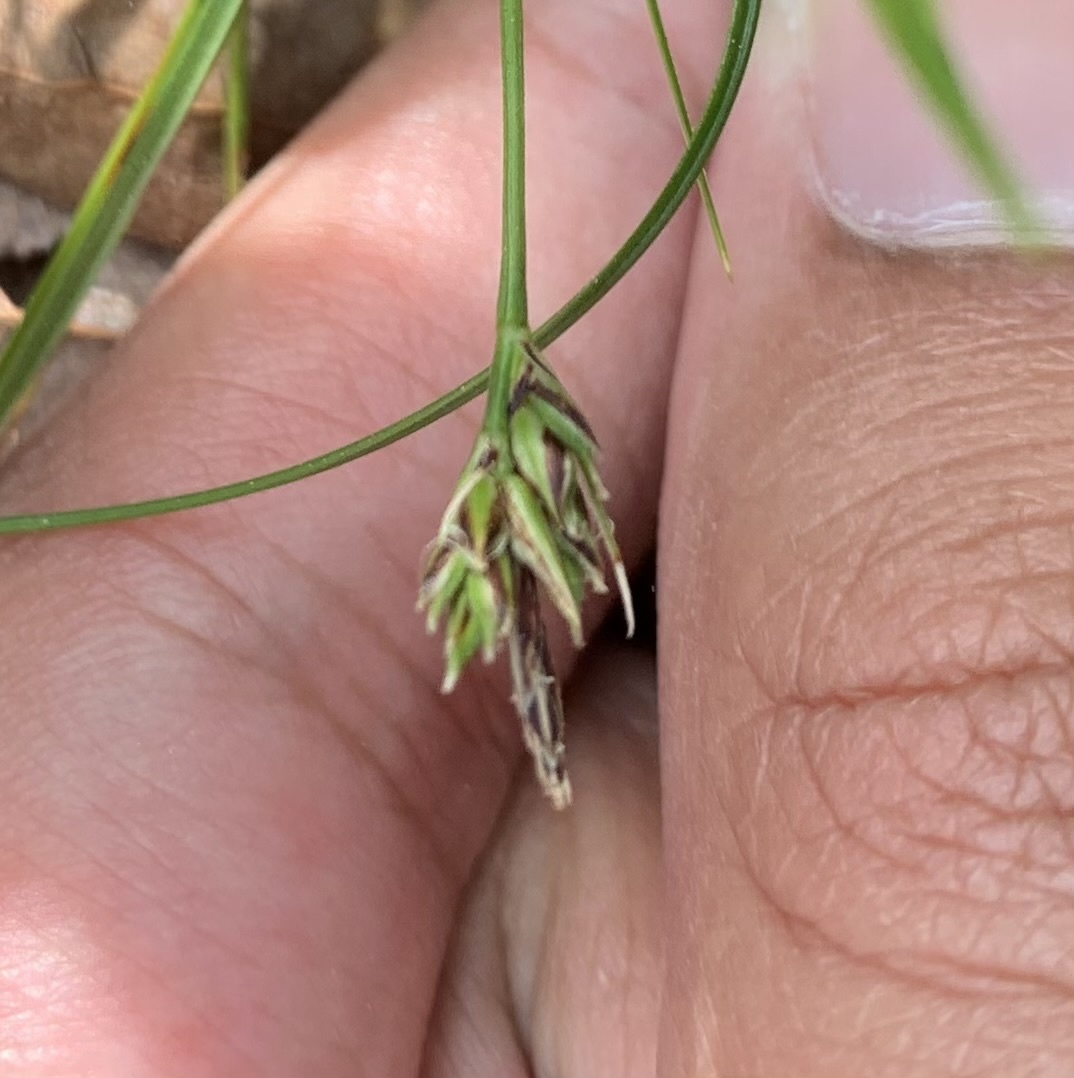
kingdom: Plantae
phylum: Tracheophyta
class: Liliopsida
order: Poales
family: Cyperaceae
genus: Carex
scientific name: Carex nigromarginata
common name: Black-edged sedge
